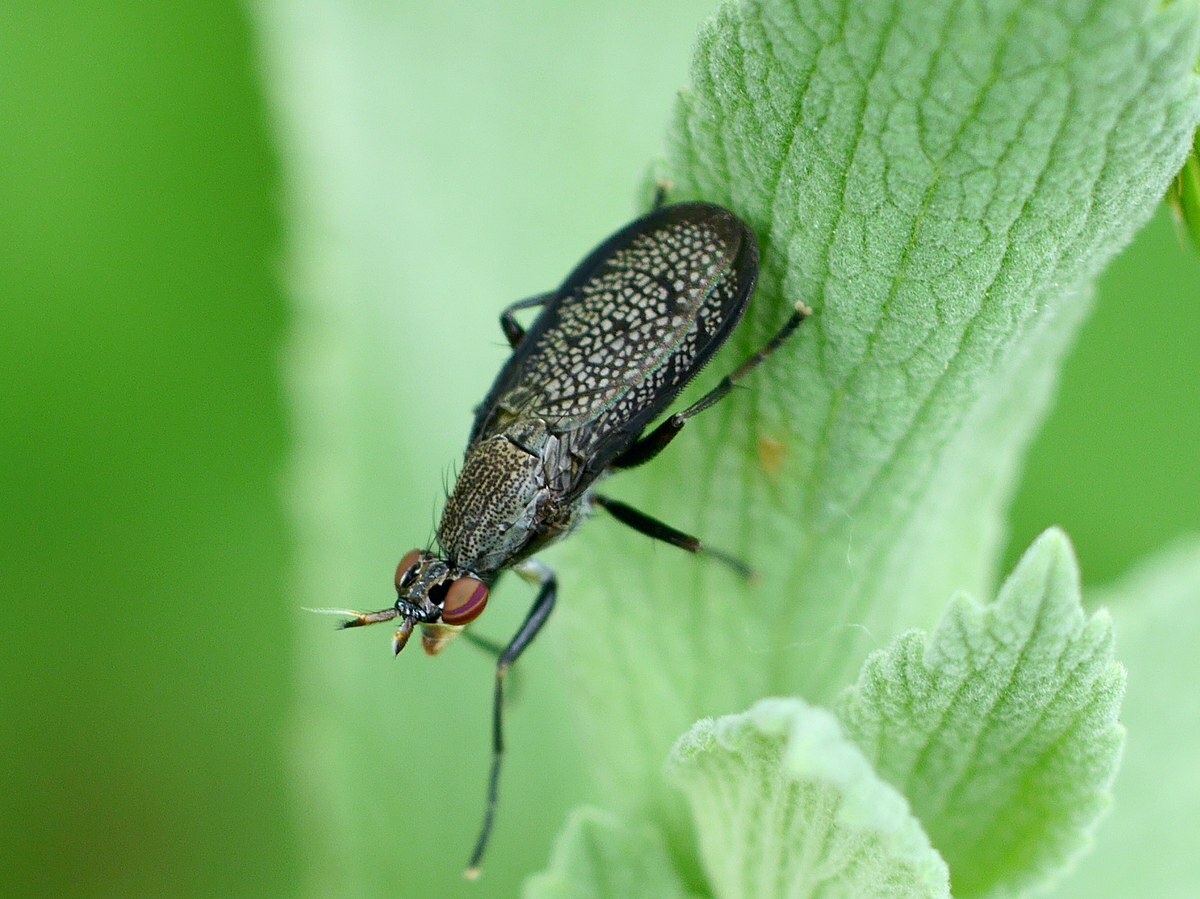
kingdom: Animalia
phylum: Arthropoda
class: Insecta
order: Diptera
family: Sciomyzidae
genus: Coremacera
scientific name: Coremacera marginata
